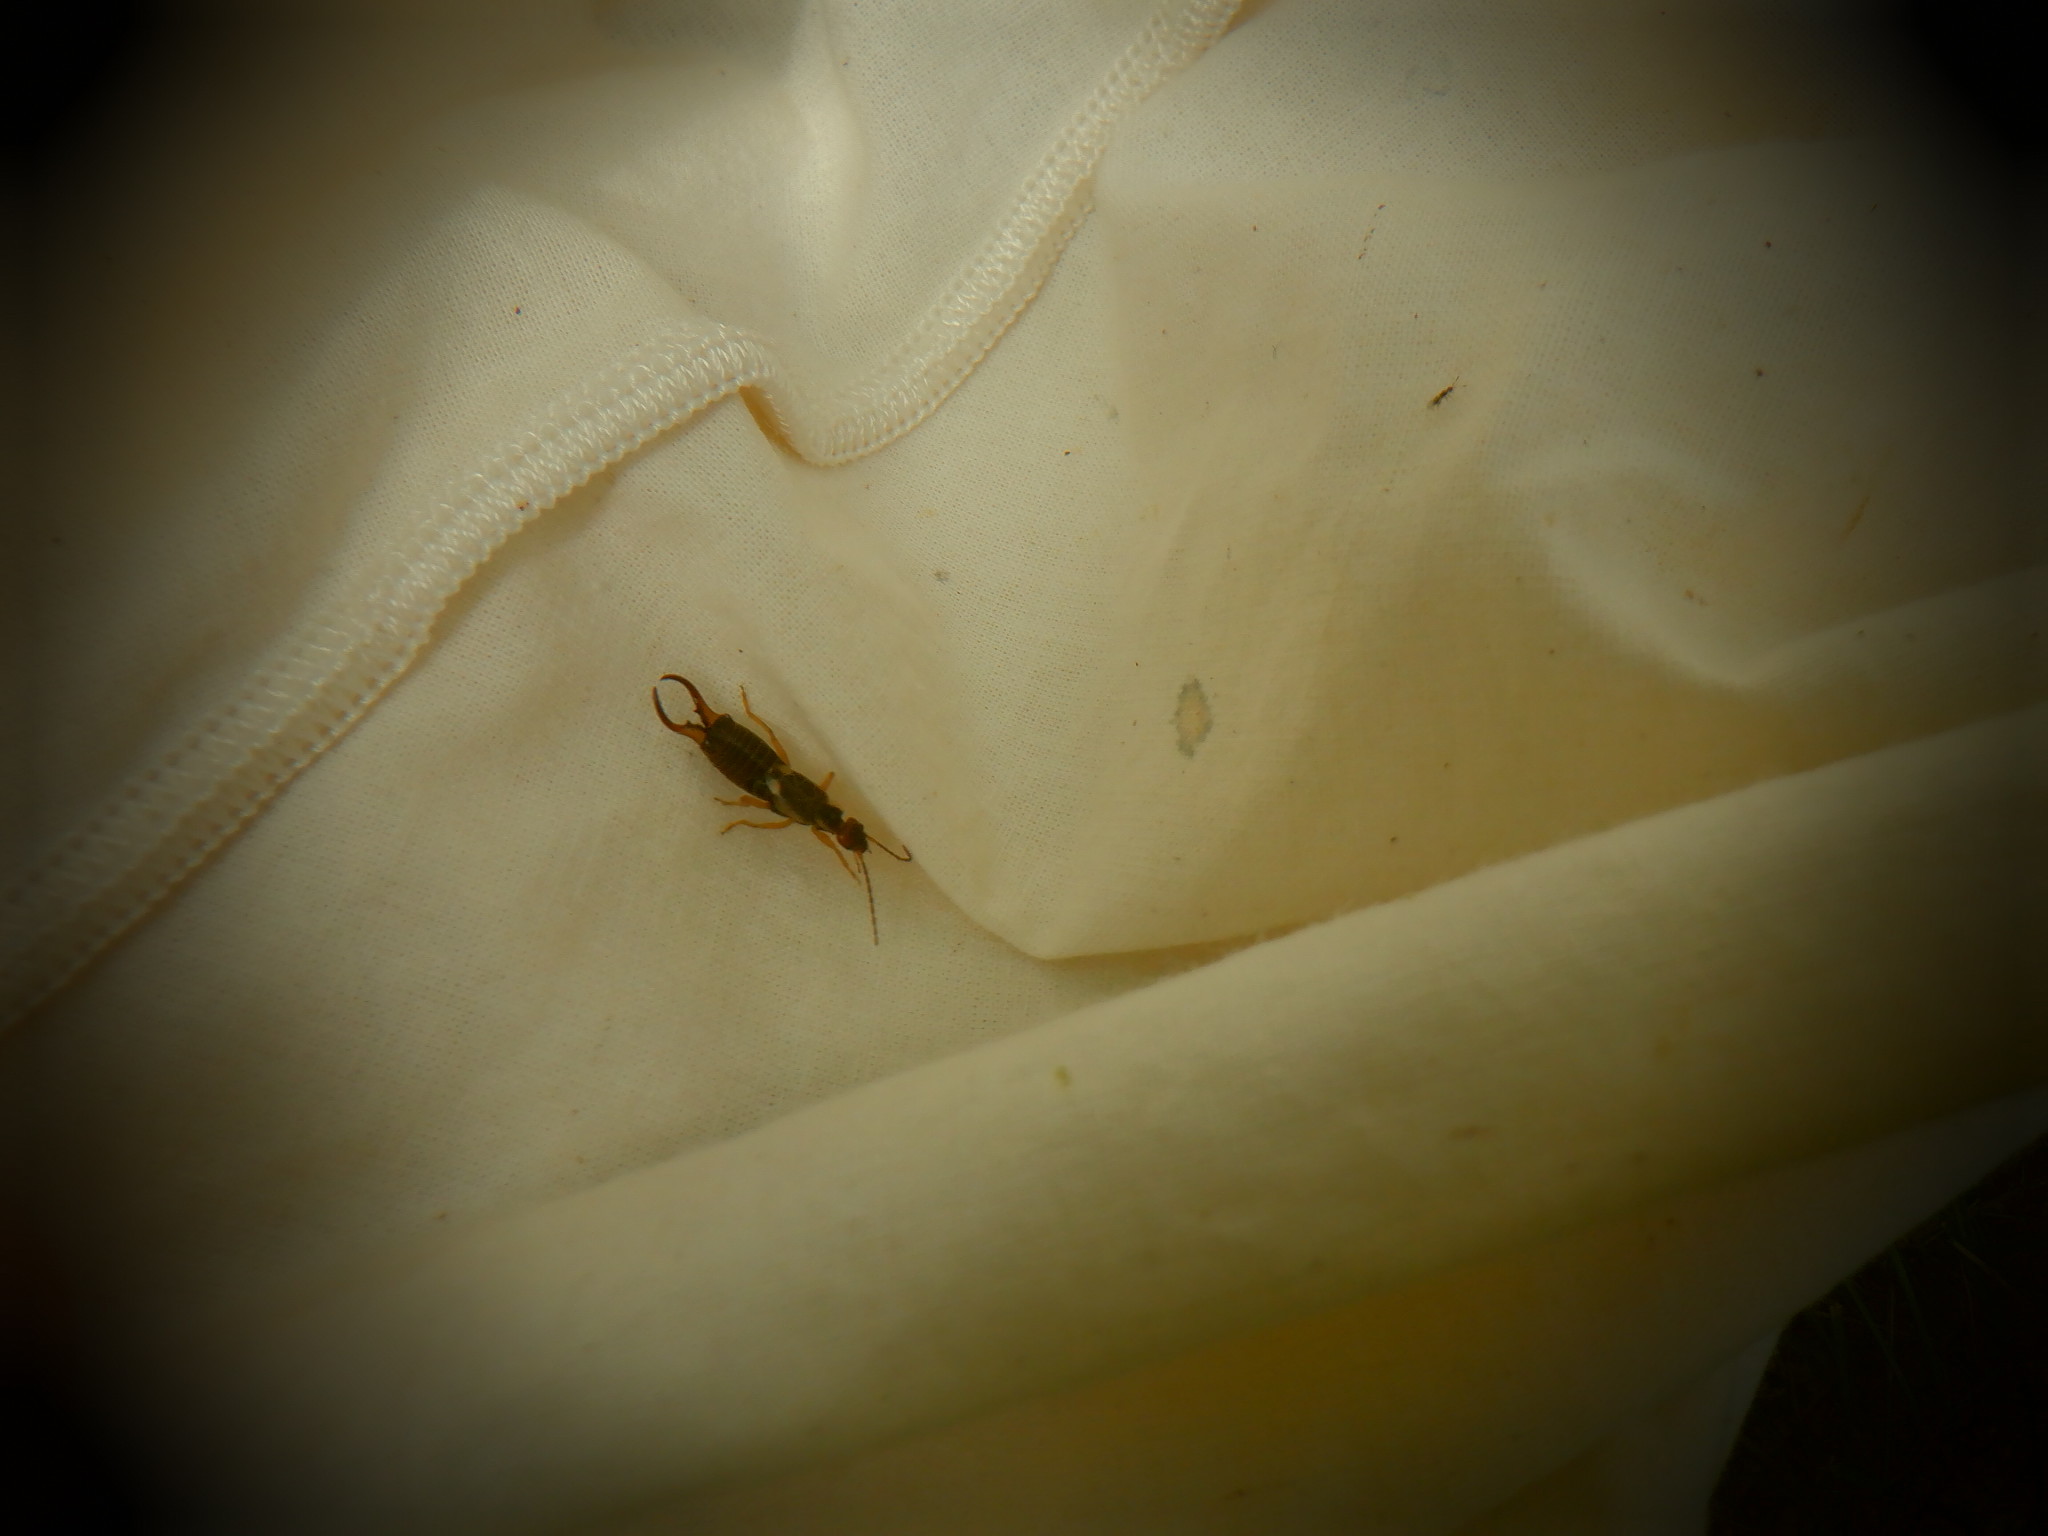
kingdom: Animalia
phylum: Arthropoda
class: Insecta
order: Dermaptera
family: Forficulidae
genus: Forficula
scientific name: Forficula
